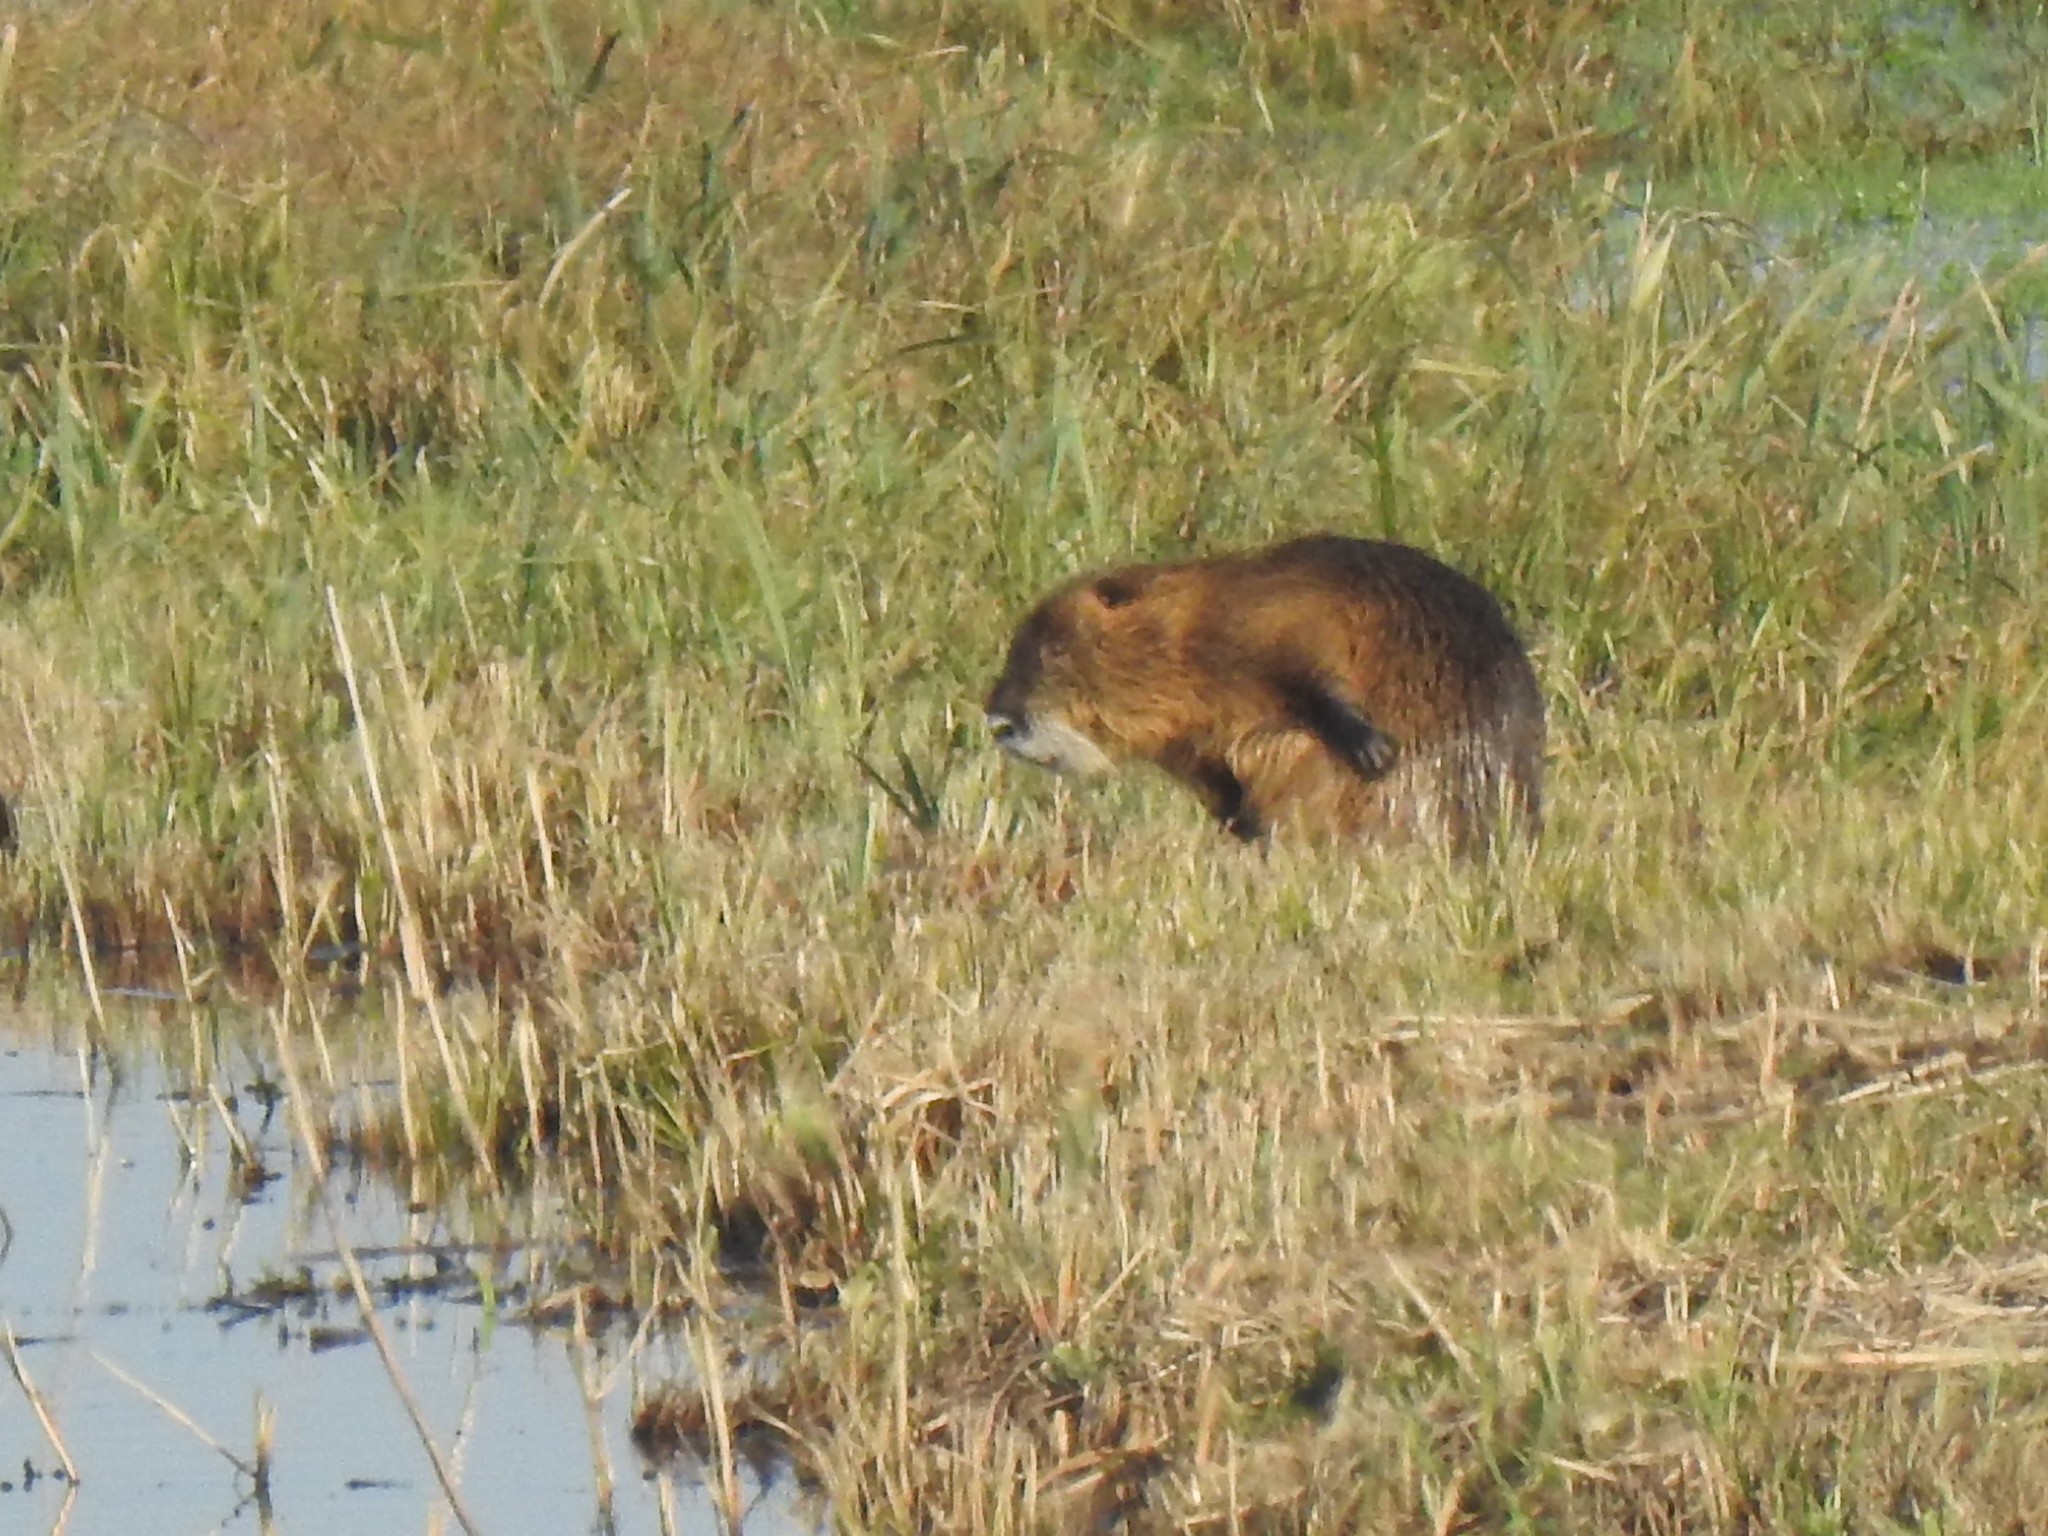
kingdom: Animalia
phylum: Chordata
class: Mammalia
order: Rodentia
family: Myocastoridae
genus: Myocastor
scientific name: Myocastor coypus
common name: Coypu
